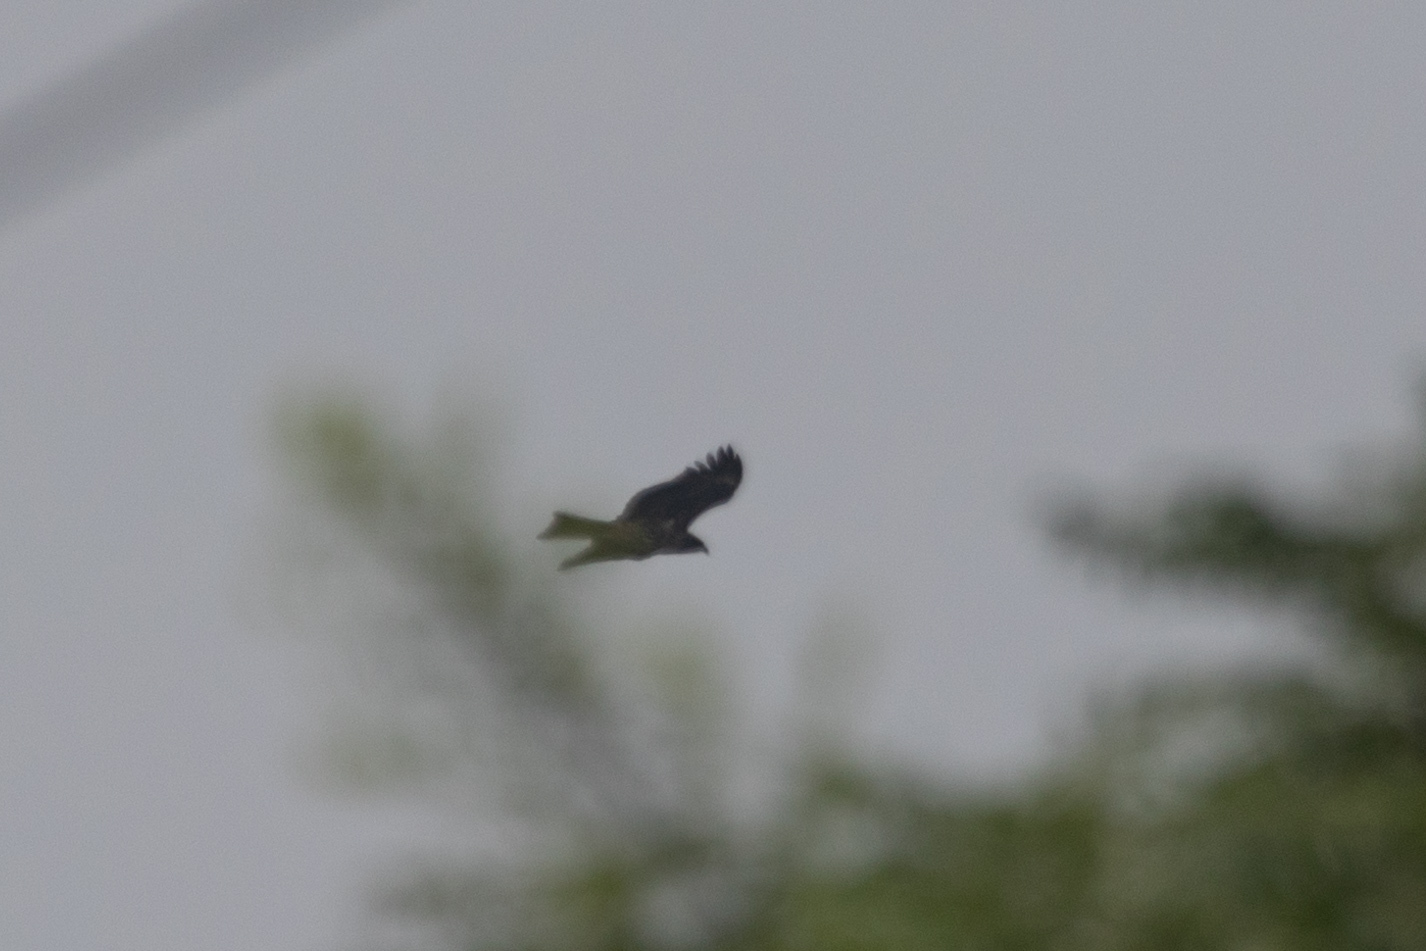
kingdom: Animalia
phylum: Chordata
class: Aves
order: Accipitriformes
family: Accipitridae
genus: Milvus
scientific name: Milvus migrans
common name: Black kite
